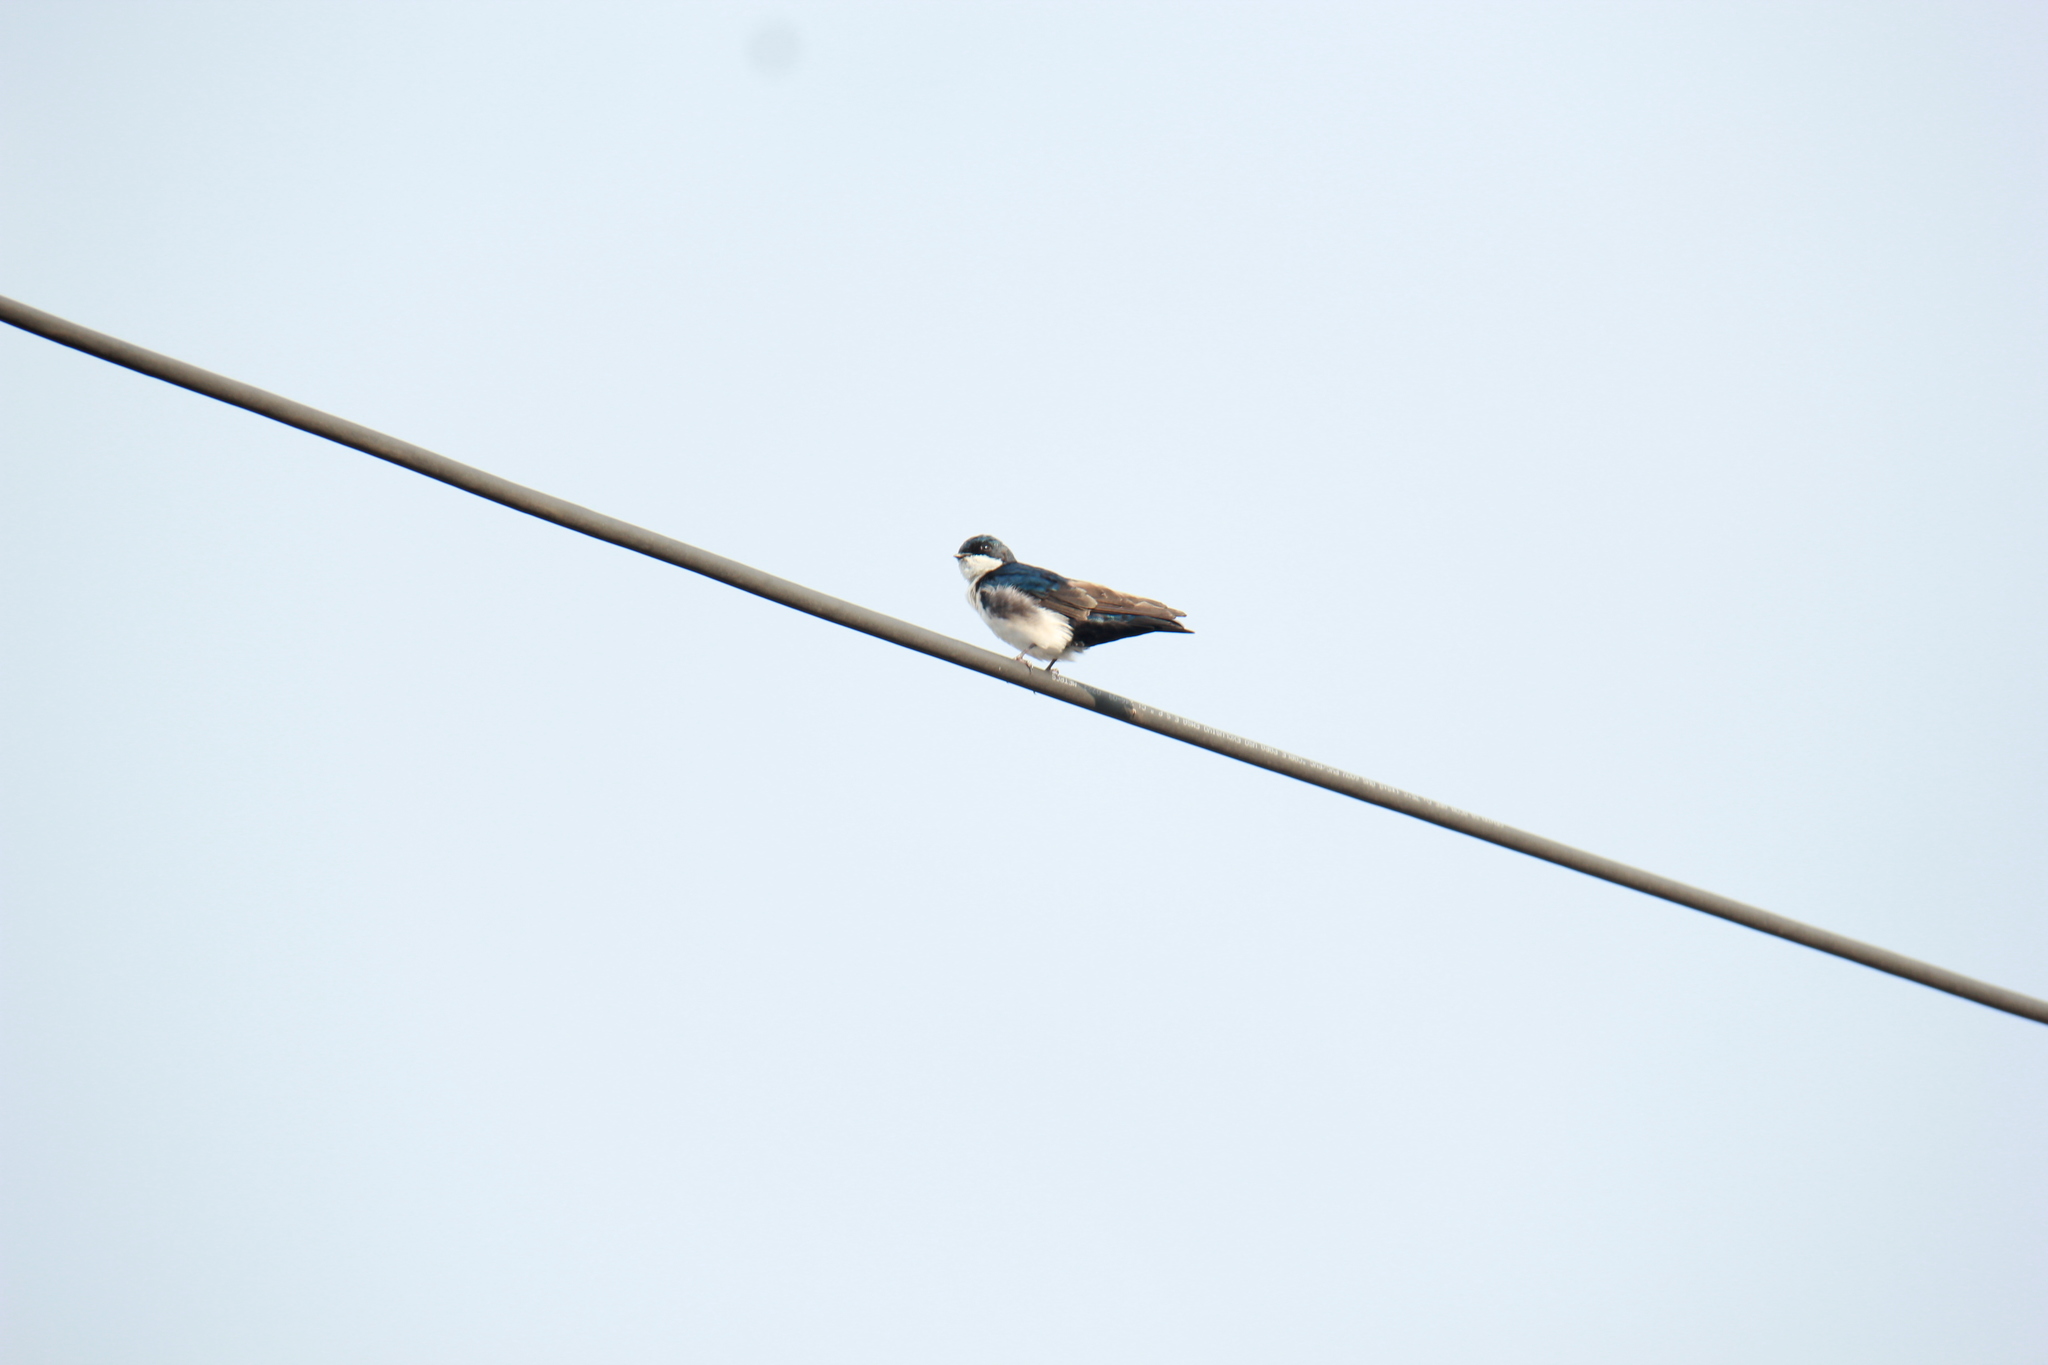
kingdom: Animalia
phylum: Chordata
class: Aves
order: Passeriformes
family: Hirundinidae
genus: Notiochelidon
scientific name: Notiochelidon cyanoleuca
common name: Blue-and-white swallow
